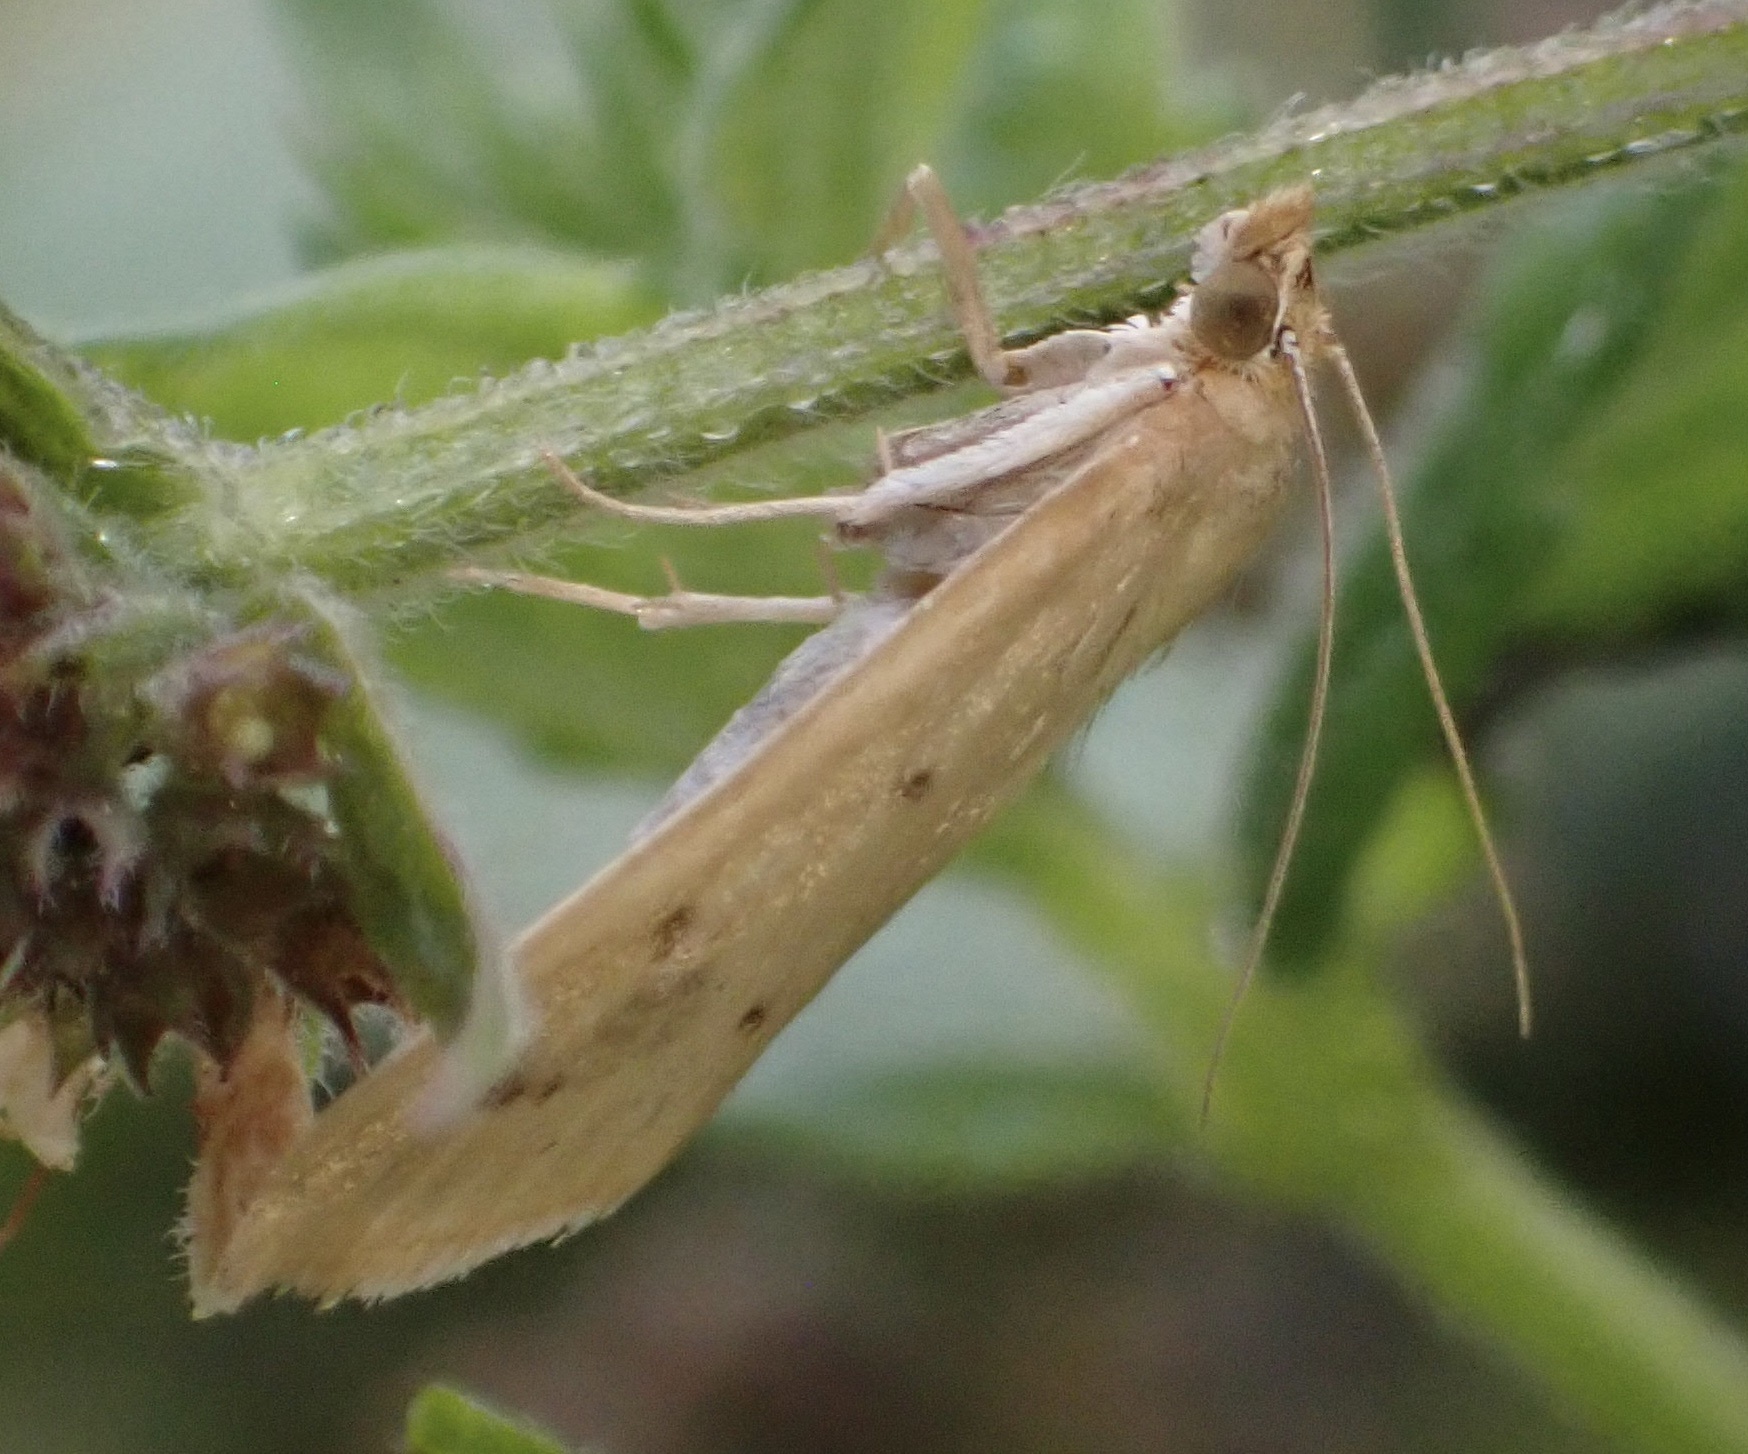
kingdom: Animalia
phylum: Arthropoda
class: Insecta
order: Lepidoptera
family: Crambidae
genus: Achyra
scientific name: Achyra nudalis
